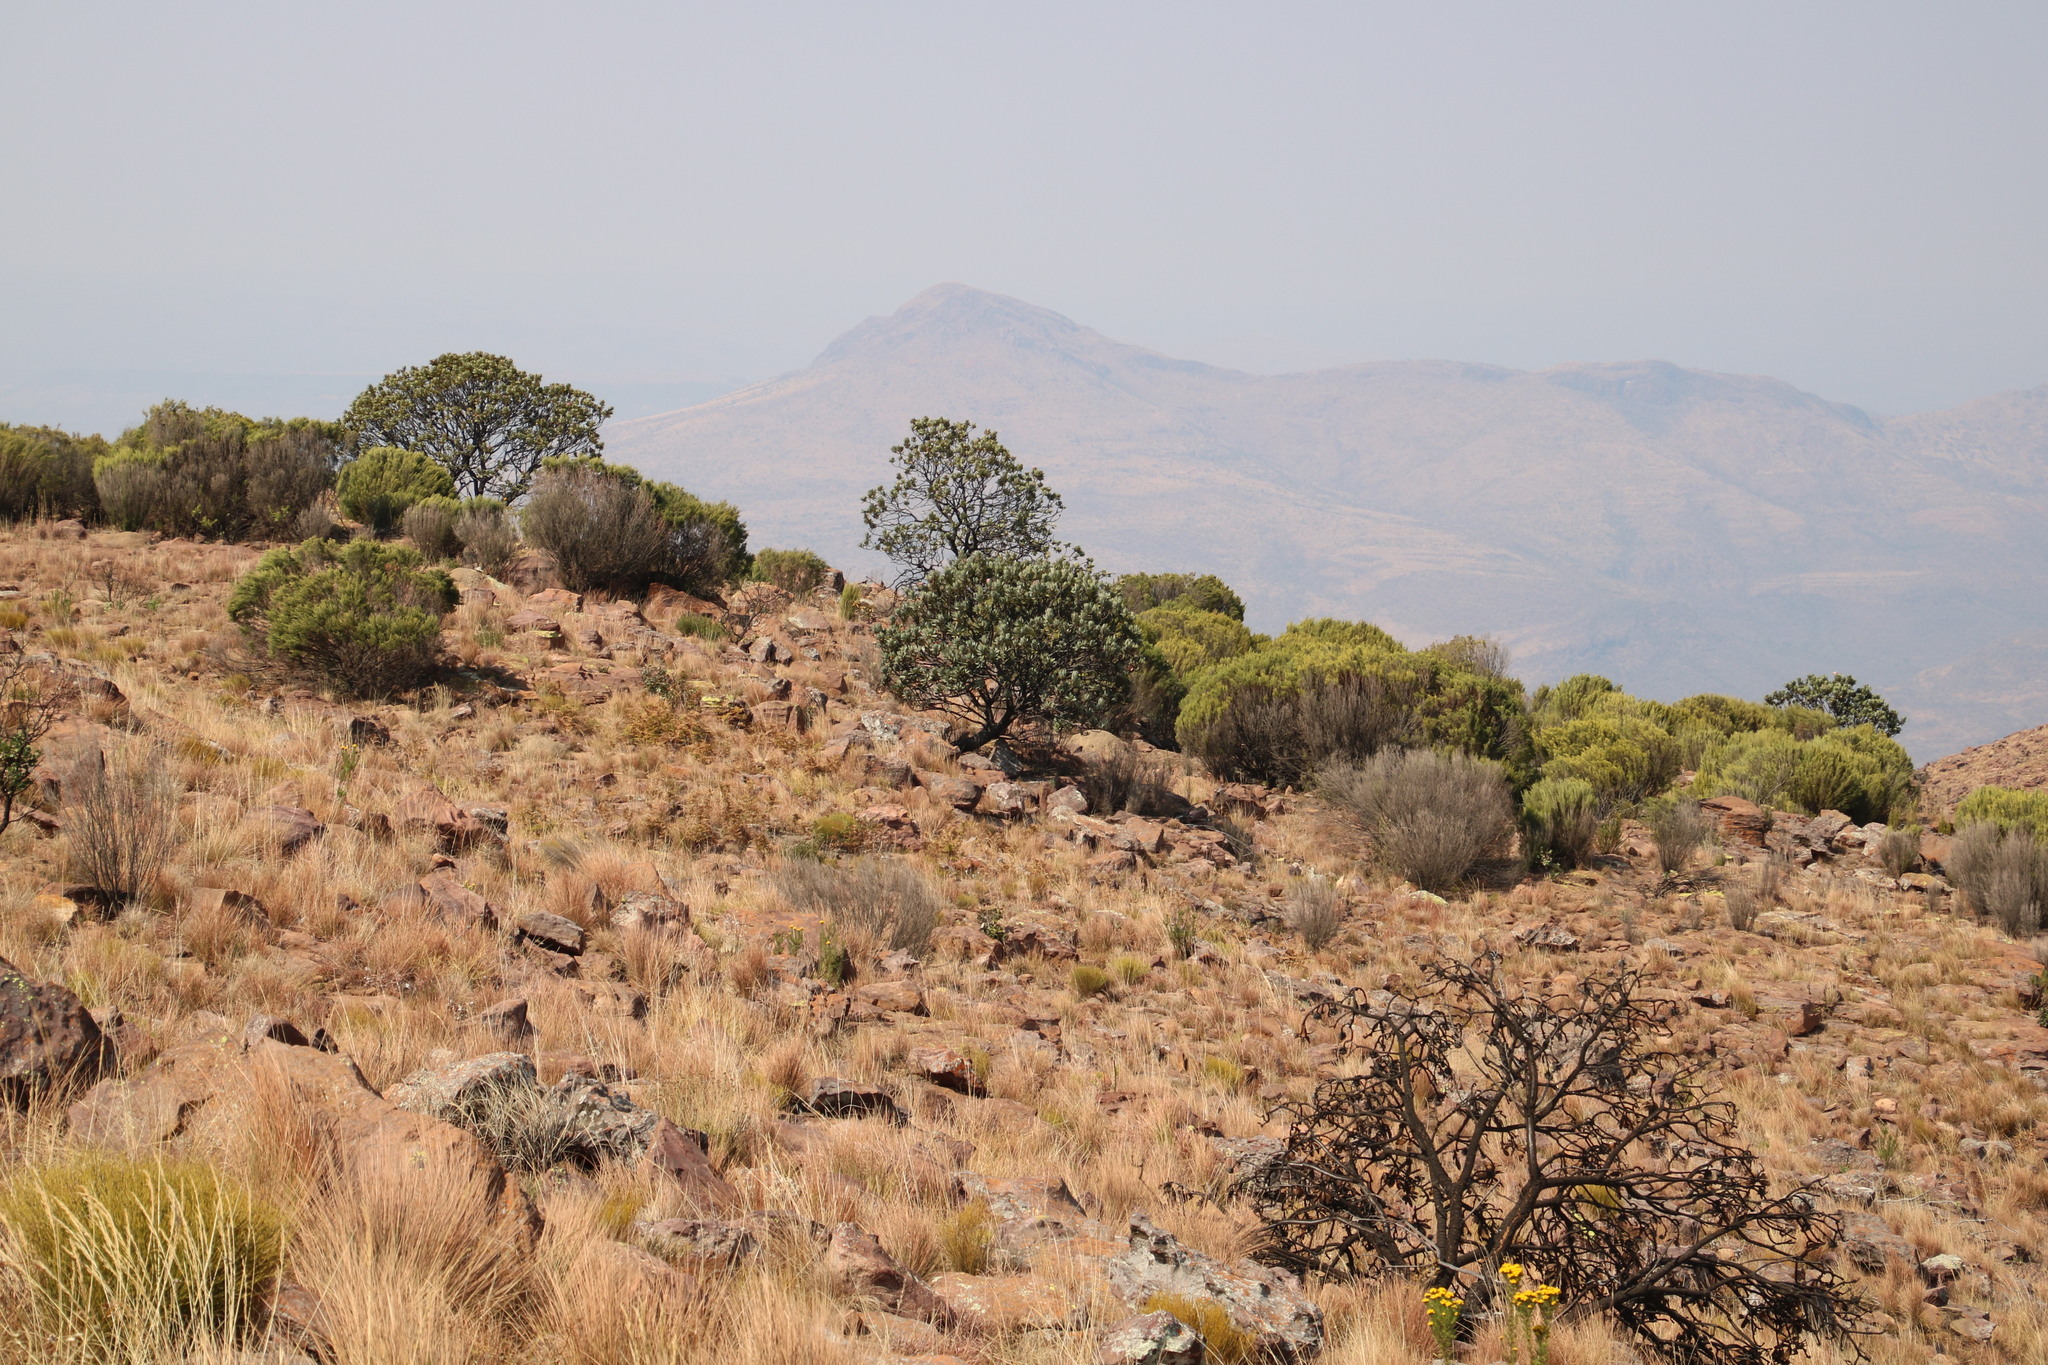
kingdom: Plantae
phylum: Tracheophyta
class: Magnoliopsida
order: Proteales
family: Proteaceae
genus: Protea
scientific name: Protea roupelliae
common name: Silver sugarbush
